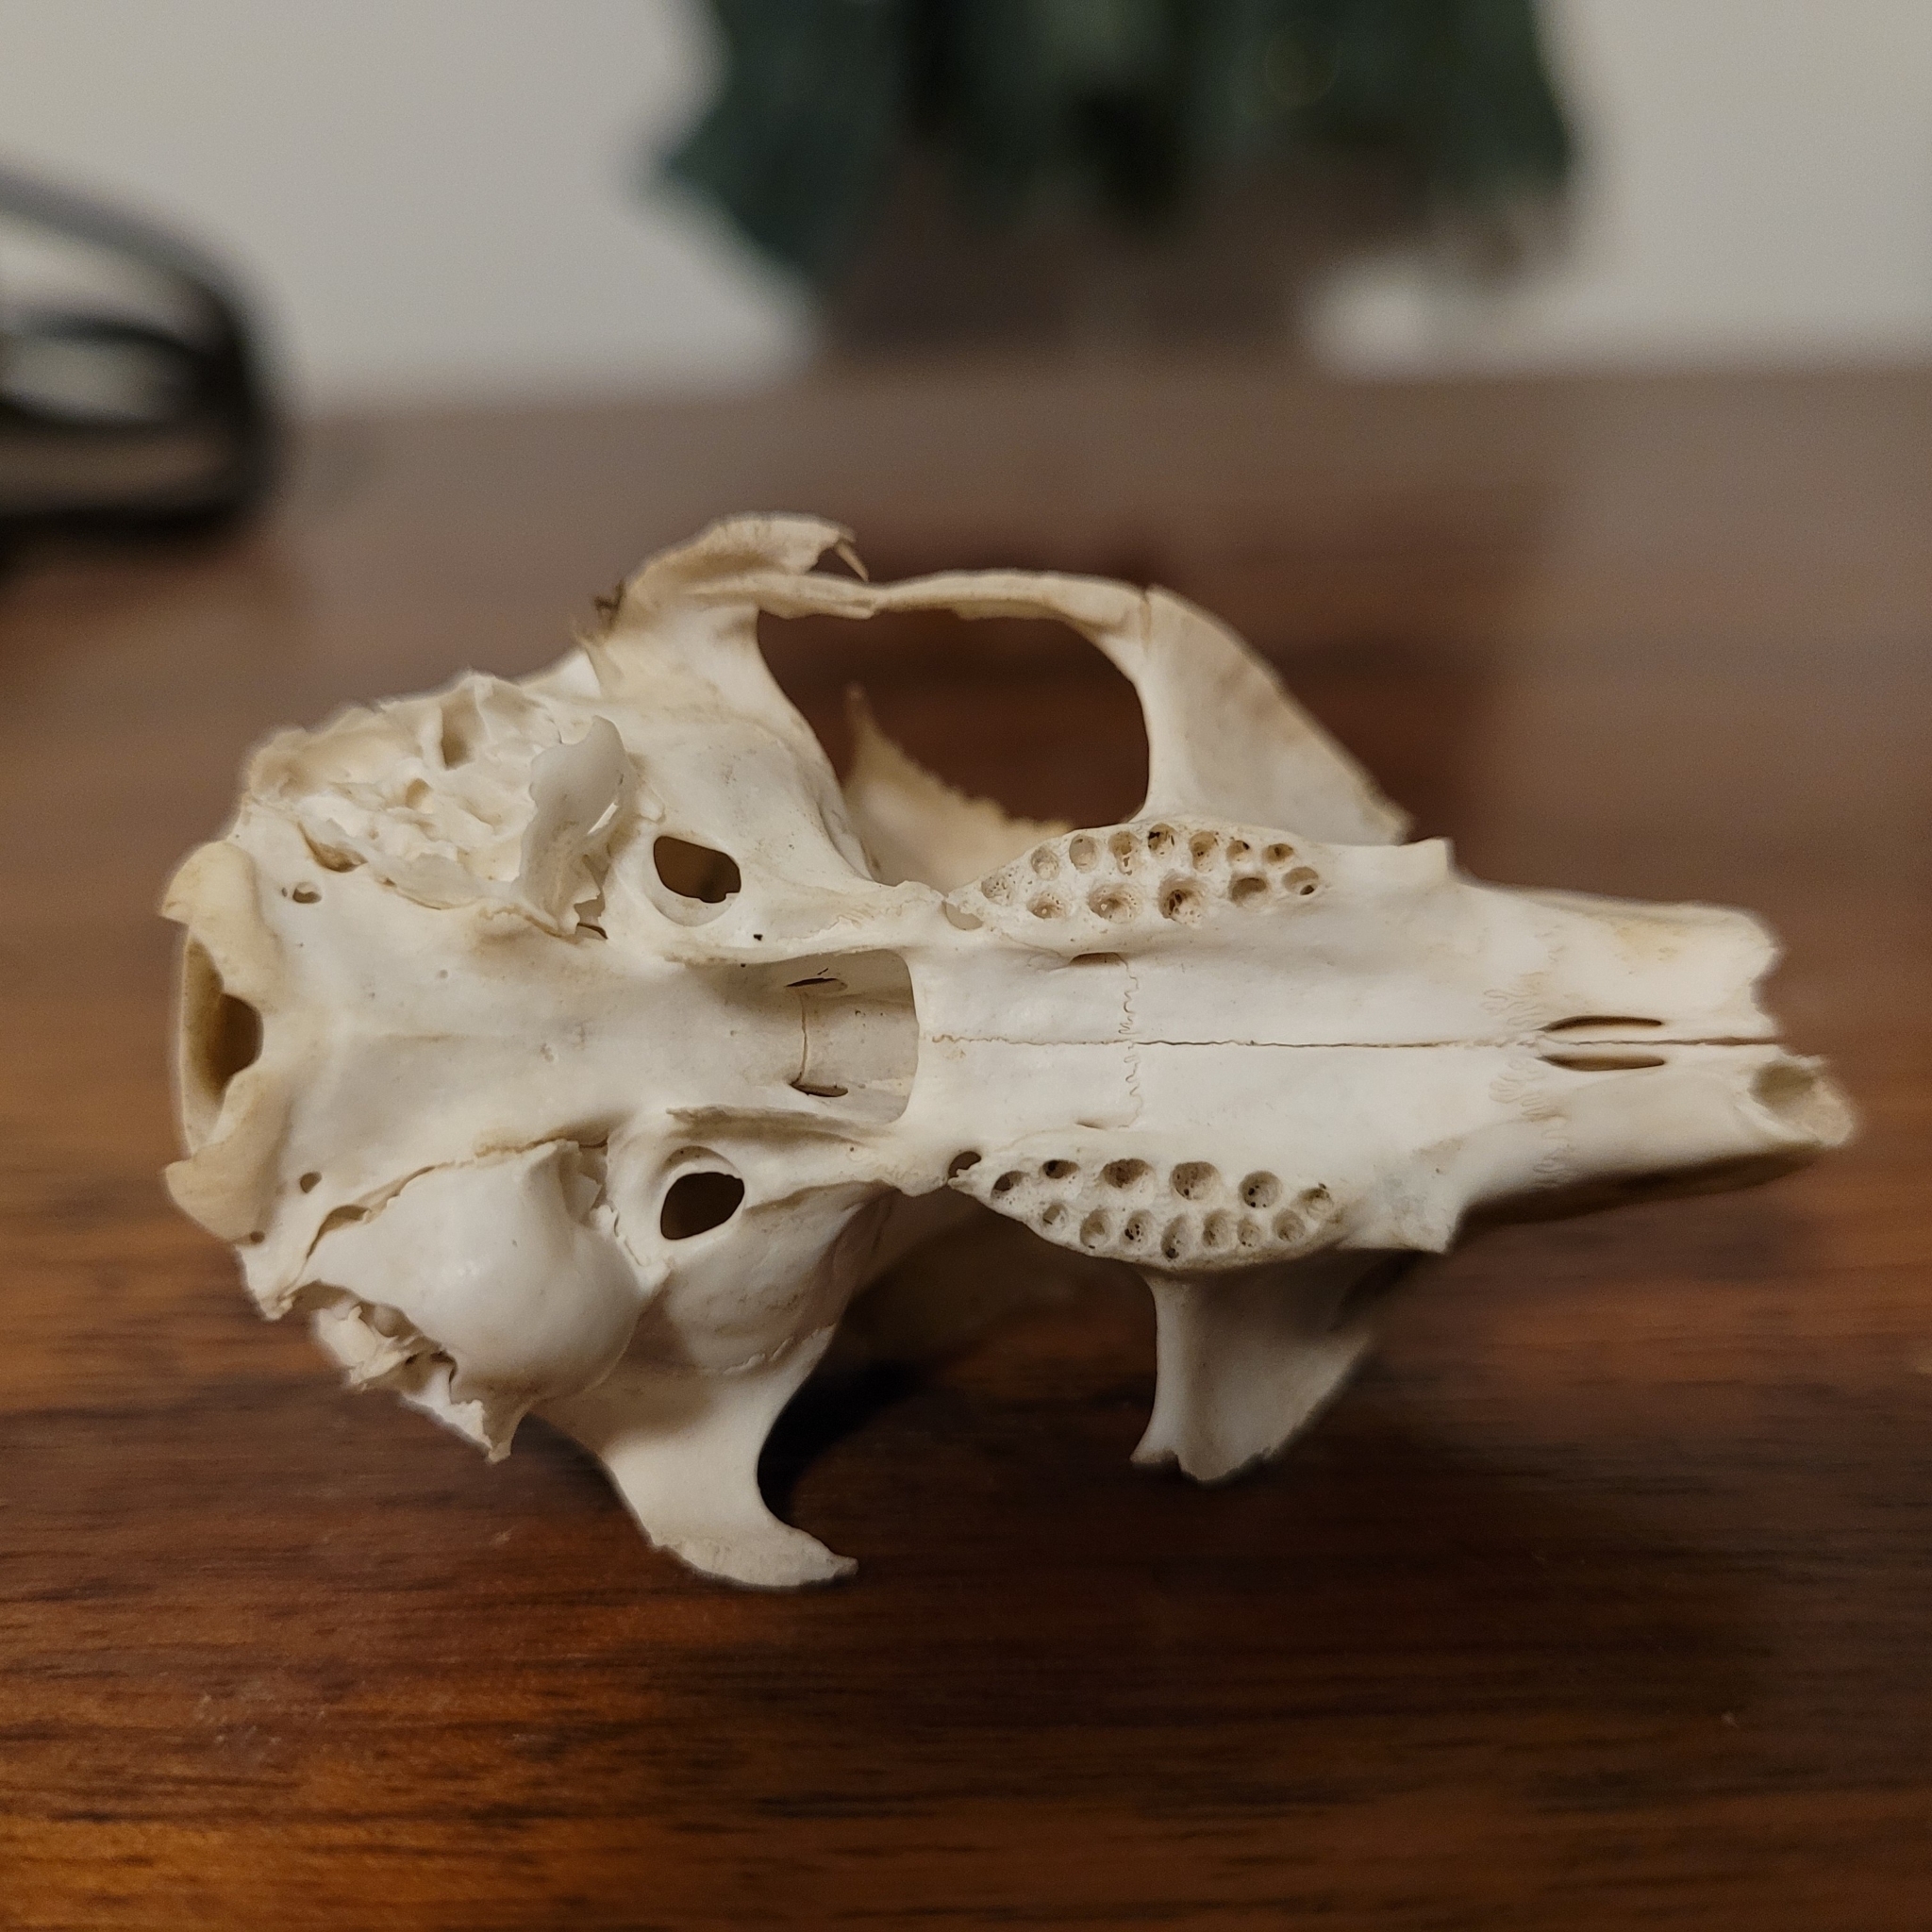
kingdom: Animalia
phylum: Chordata
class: Mammalia
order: Rodentia
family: Sciuridae
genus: Sciurus
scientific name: Sciurus carolinensis
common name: Eastern gray squirrel
